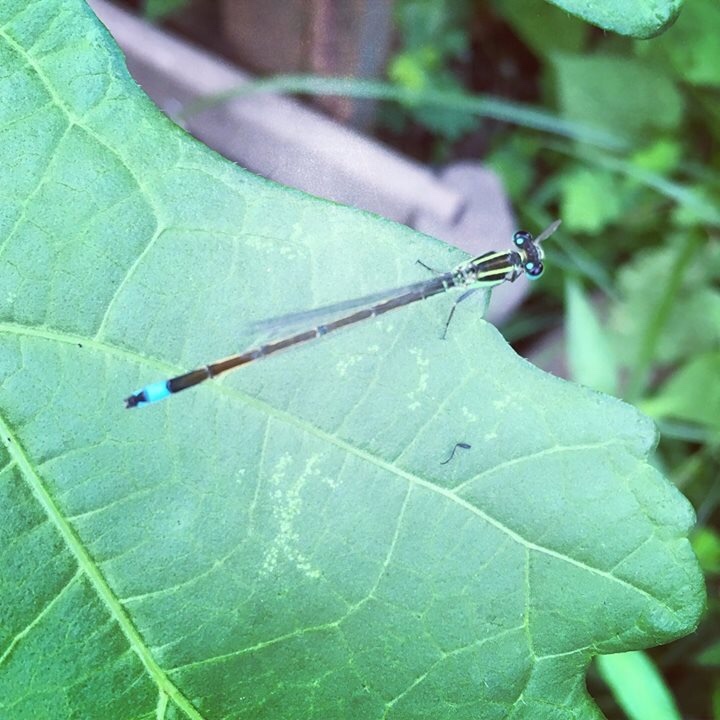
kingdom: Animalia
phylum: Arthropoda
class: Insecta
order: Odonata
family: Coenagrionidae
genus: Ischnura
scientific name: Ischnura ramburii
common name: Rambur's forktail
